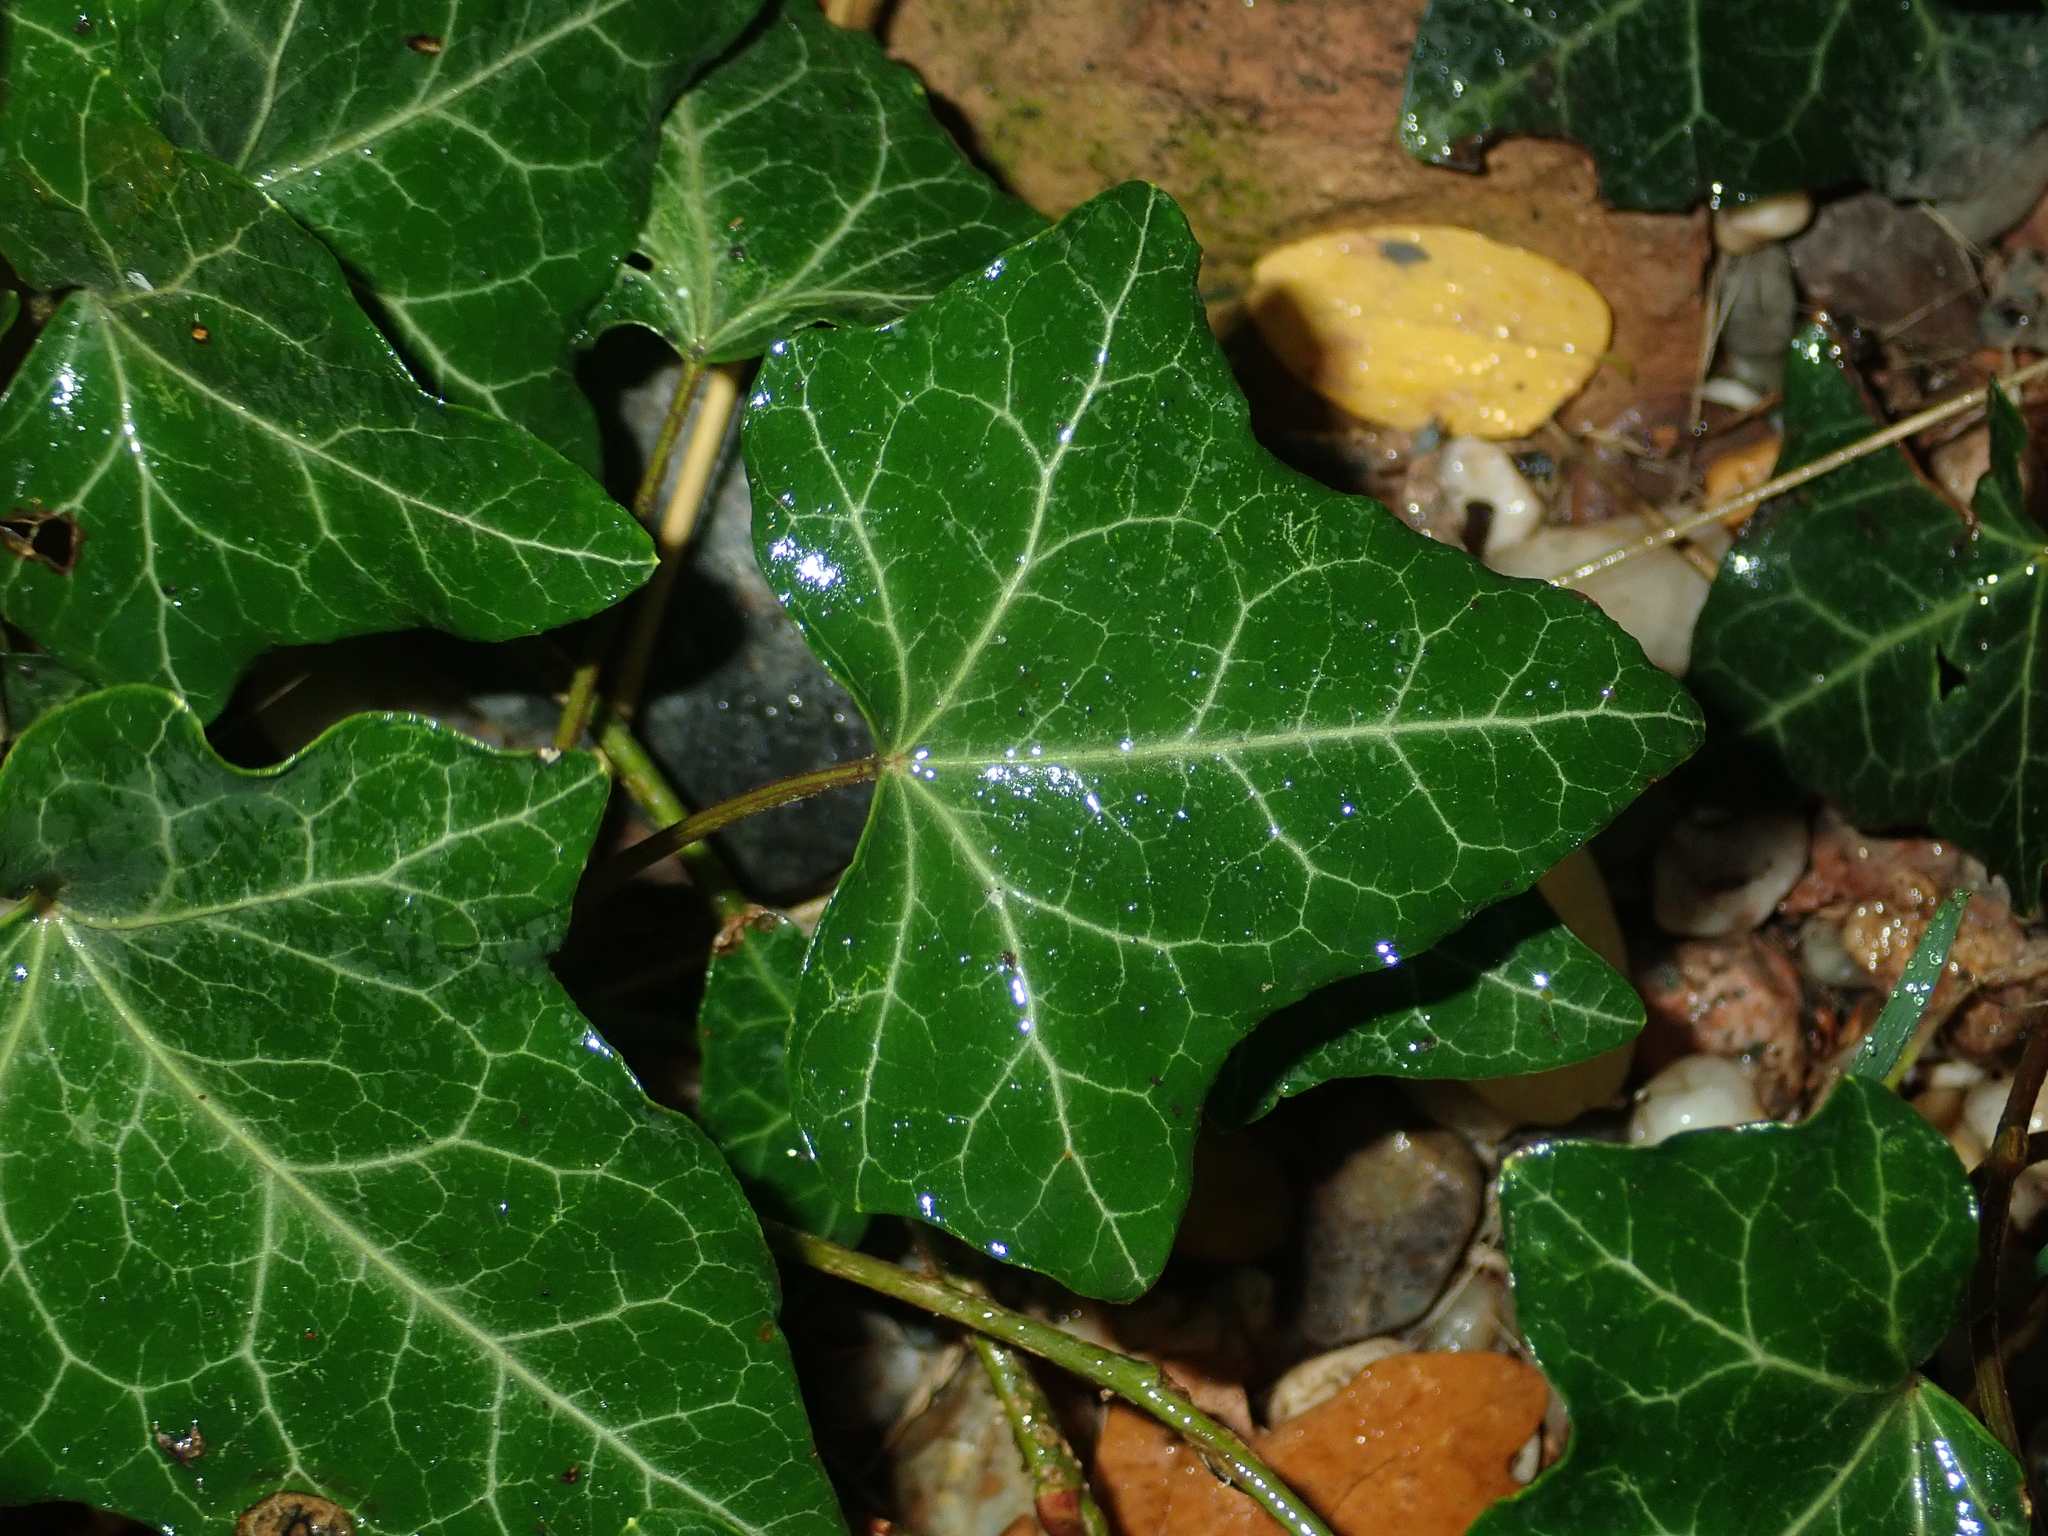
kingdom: Plantae
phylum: Tracheophyta
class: Magnoliopsida
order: Apiales
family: Araliaceae
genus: Hedera
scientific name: Hedera helix
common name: Ivy
